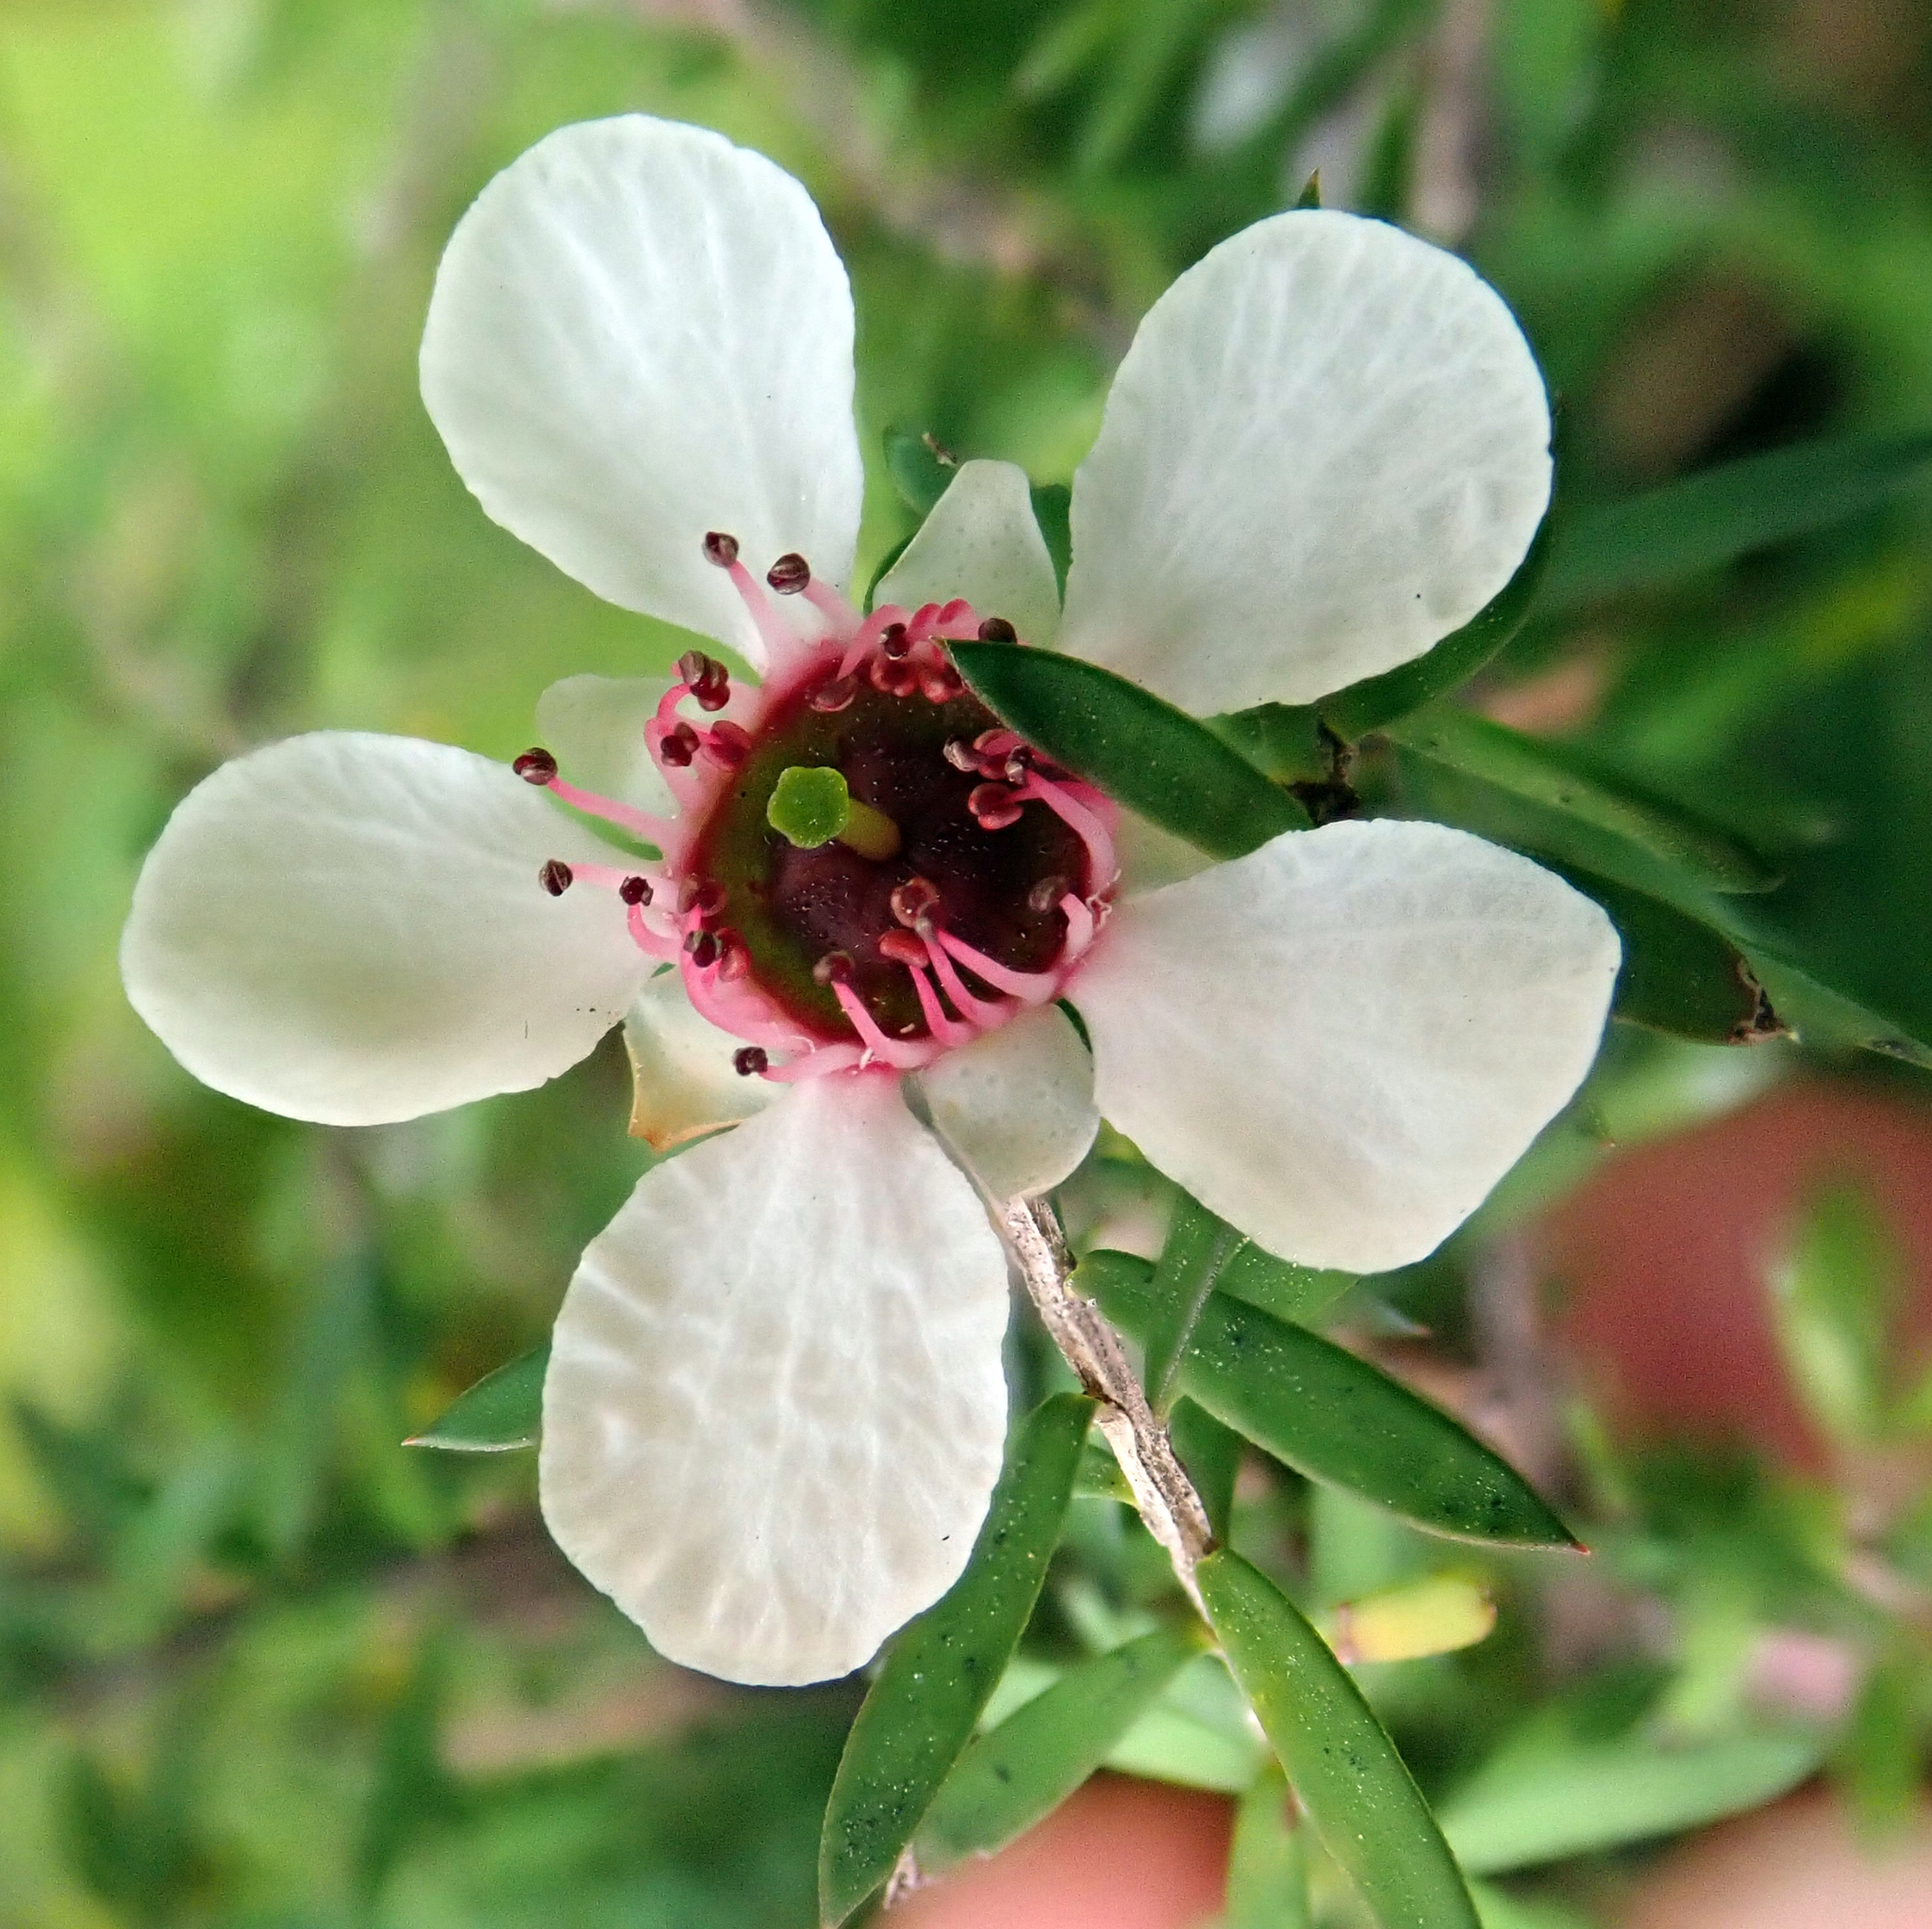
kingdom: Plantae
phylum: Tracheophyta
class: Magnoliopsida
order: Myrtales
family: Myrtaceae
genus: Leptospermum
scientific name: Leptospermum scoparium
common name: Broom tea-tree
